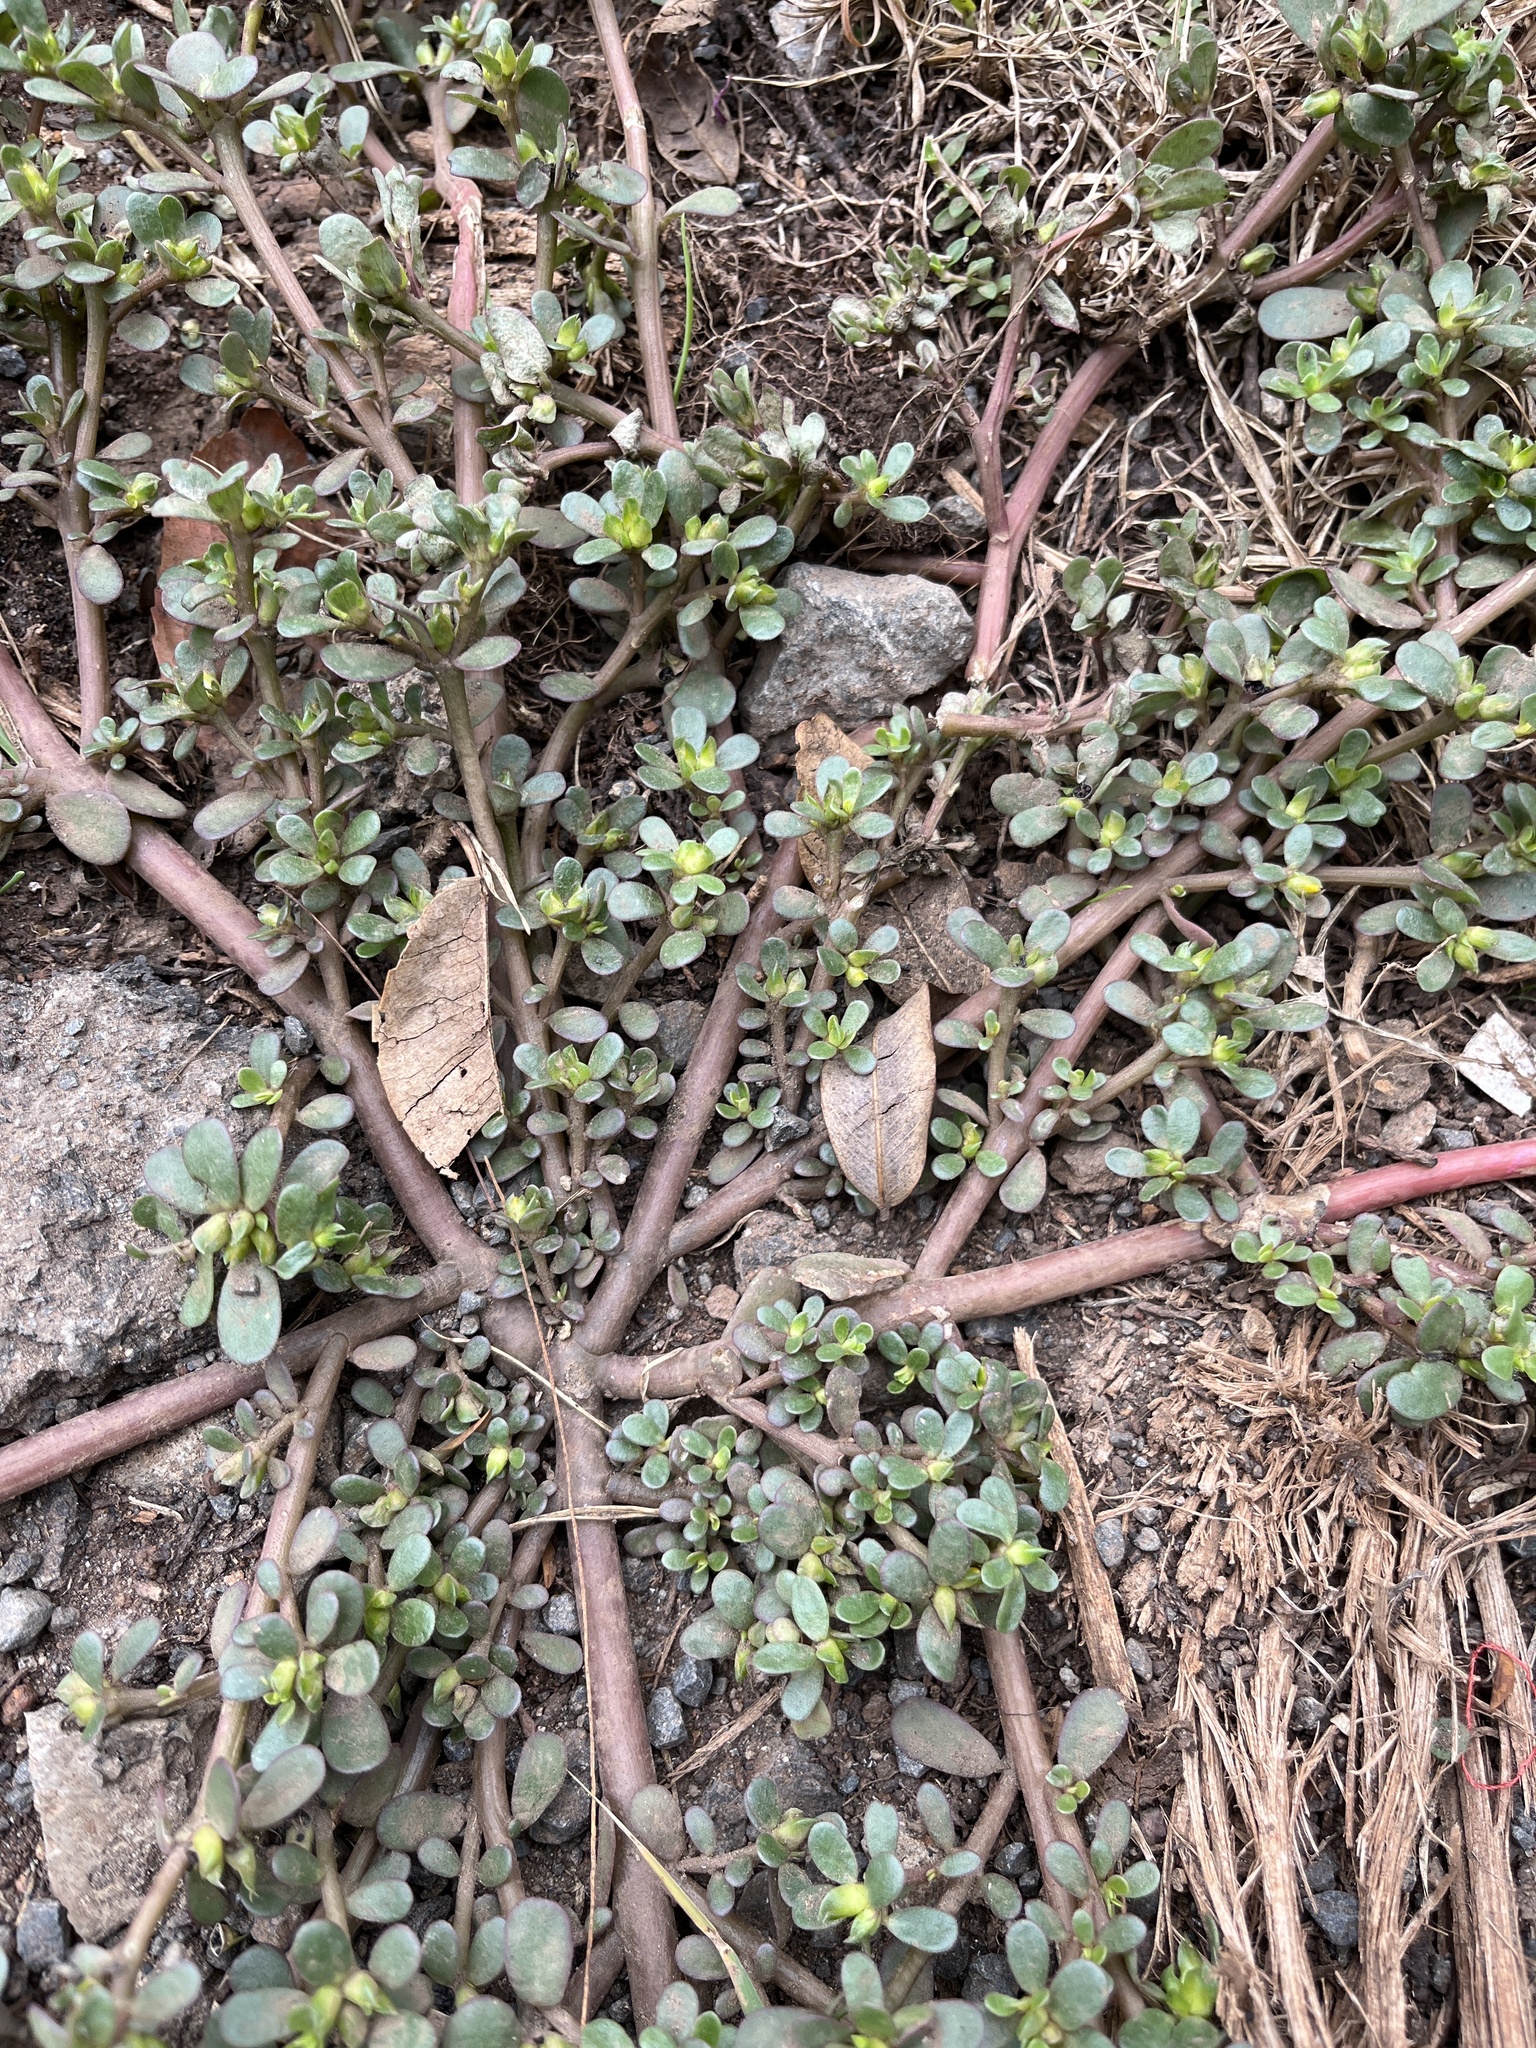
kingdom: Plantae
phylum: Tracheophyta
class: Magnoliopsida
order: Caryophyllales
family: Portulacaceae
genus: Portulaca
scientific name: Portulaca oleracea
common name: Common purslane
